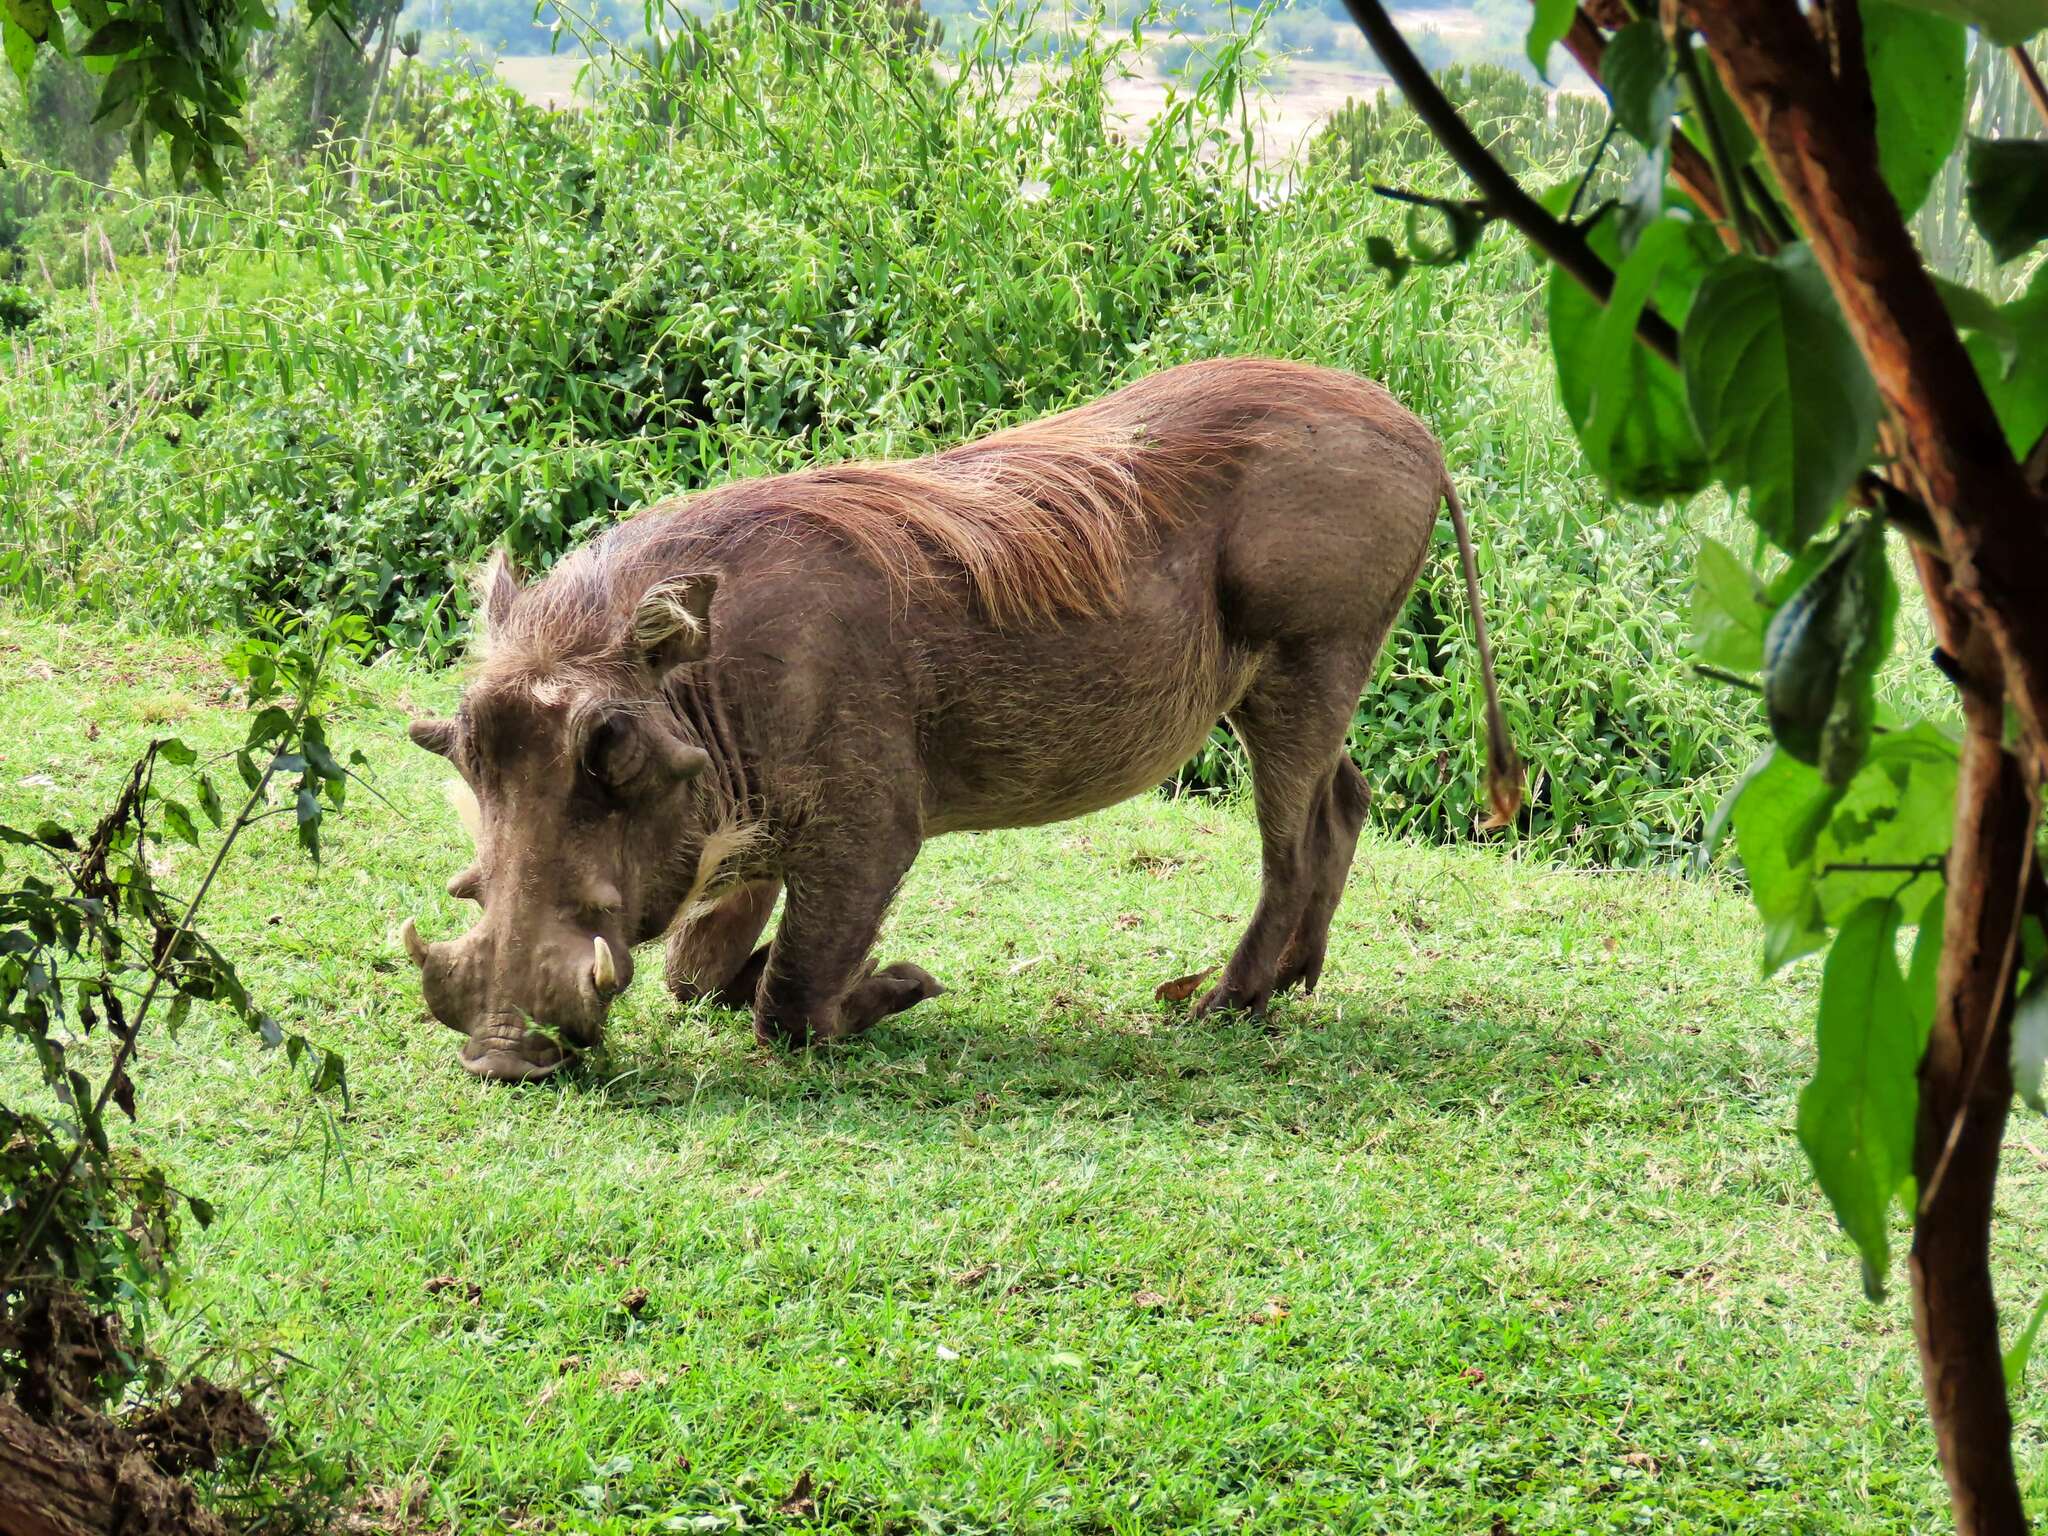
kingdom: Animalia
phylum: Chordata
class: Mammalia
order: Artiodactyla
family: Suidae
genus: Phacochoerus
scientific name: Phacochoerus africanus
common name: Common warthog
